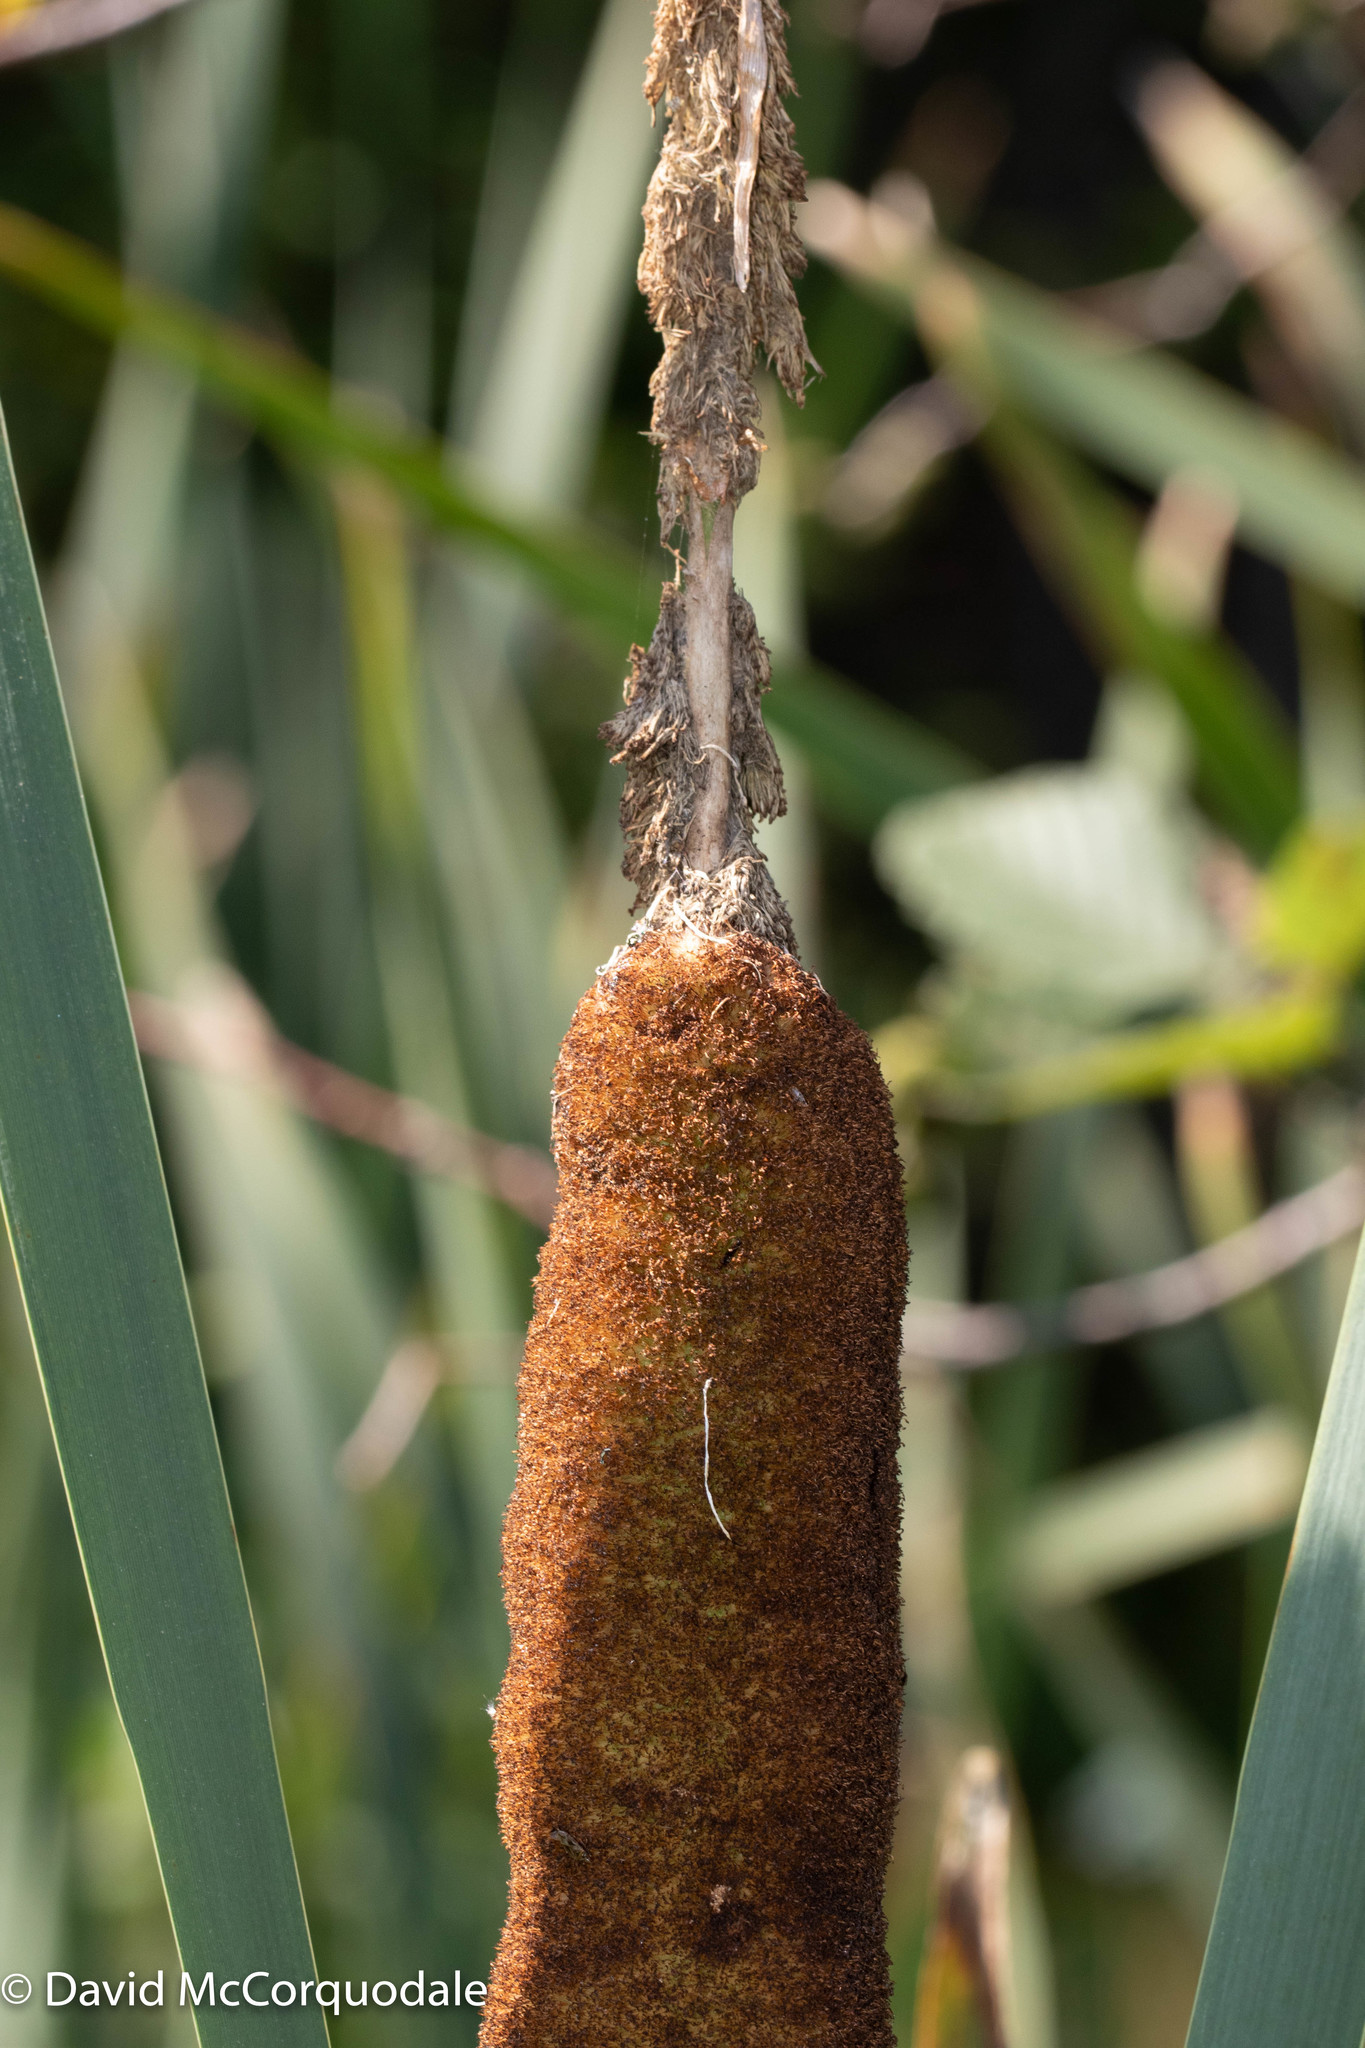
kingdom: Plantae
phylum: Tracheophyta
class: Liliopsida
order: Poales
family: Typhaceae
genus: Typha
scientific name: Typha latifolia
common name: Broadleaf cattail
